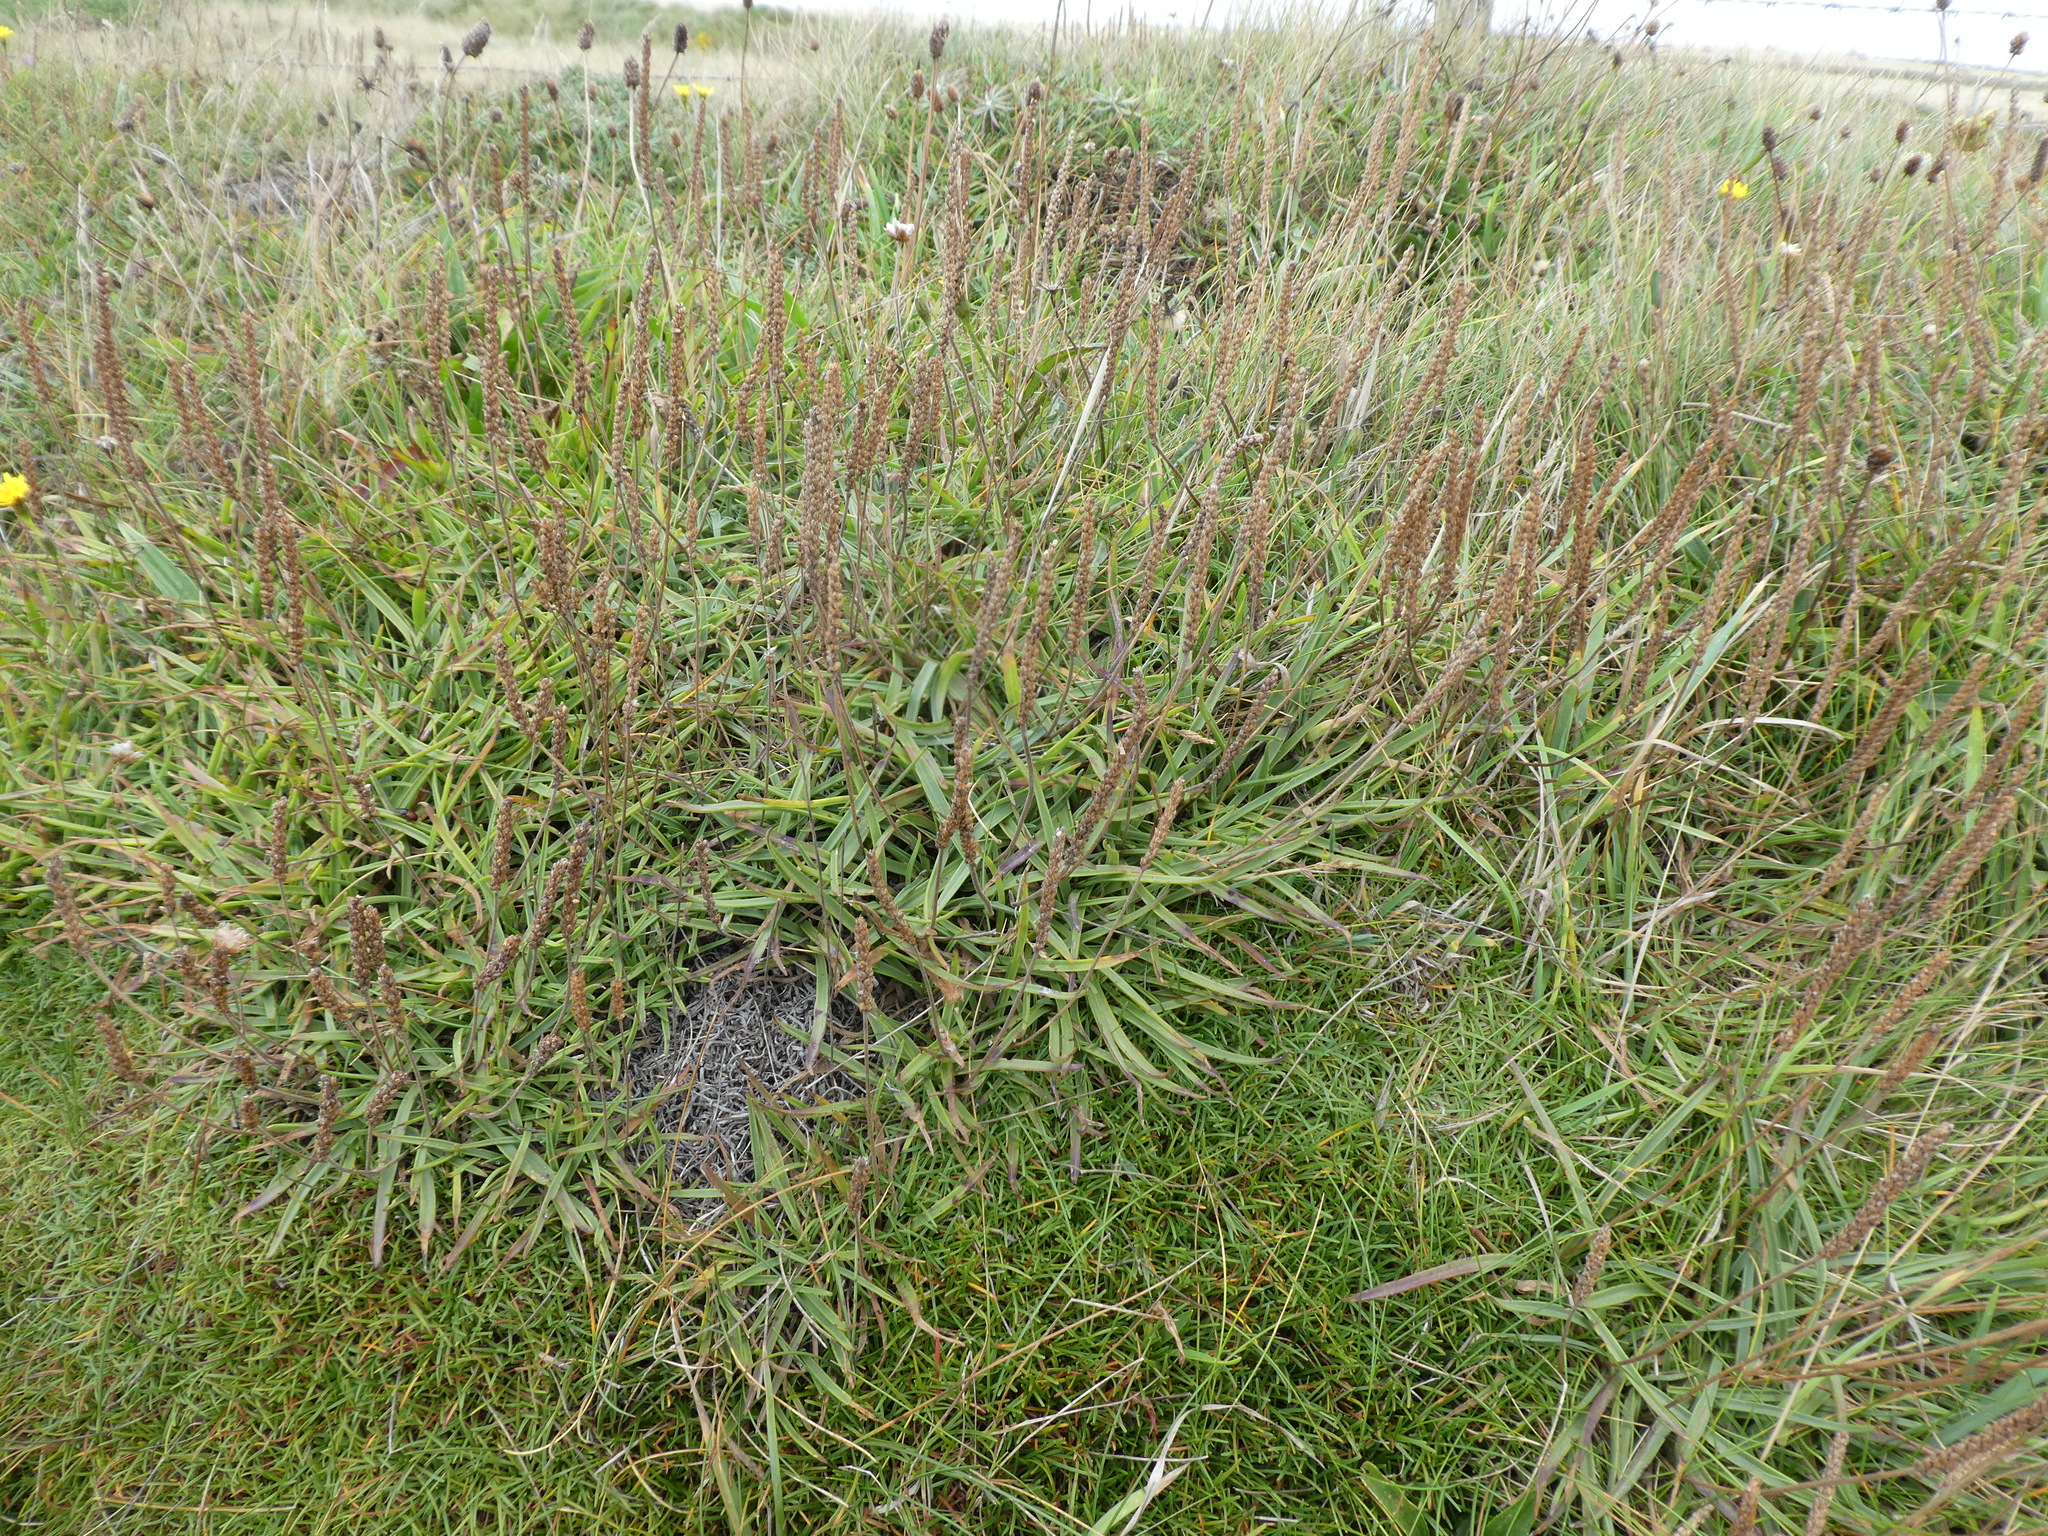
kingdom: Plantae
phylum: Tracheophyta
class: Magnoliopsida
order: Lamiales
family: Plantaginaceae
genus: Plantago
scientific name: Plantago maritima
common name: Sea plantain
